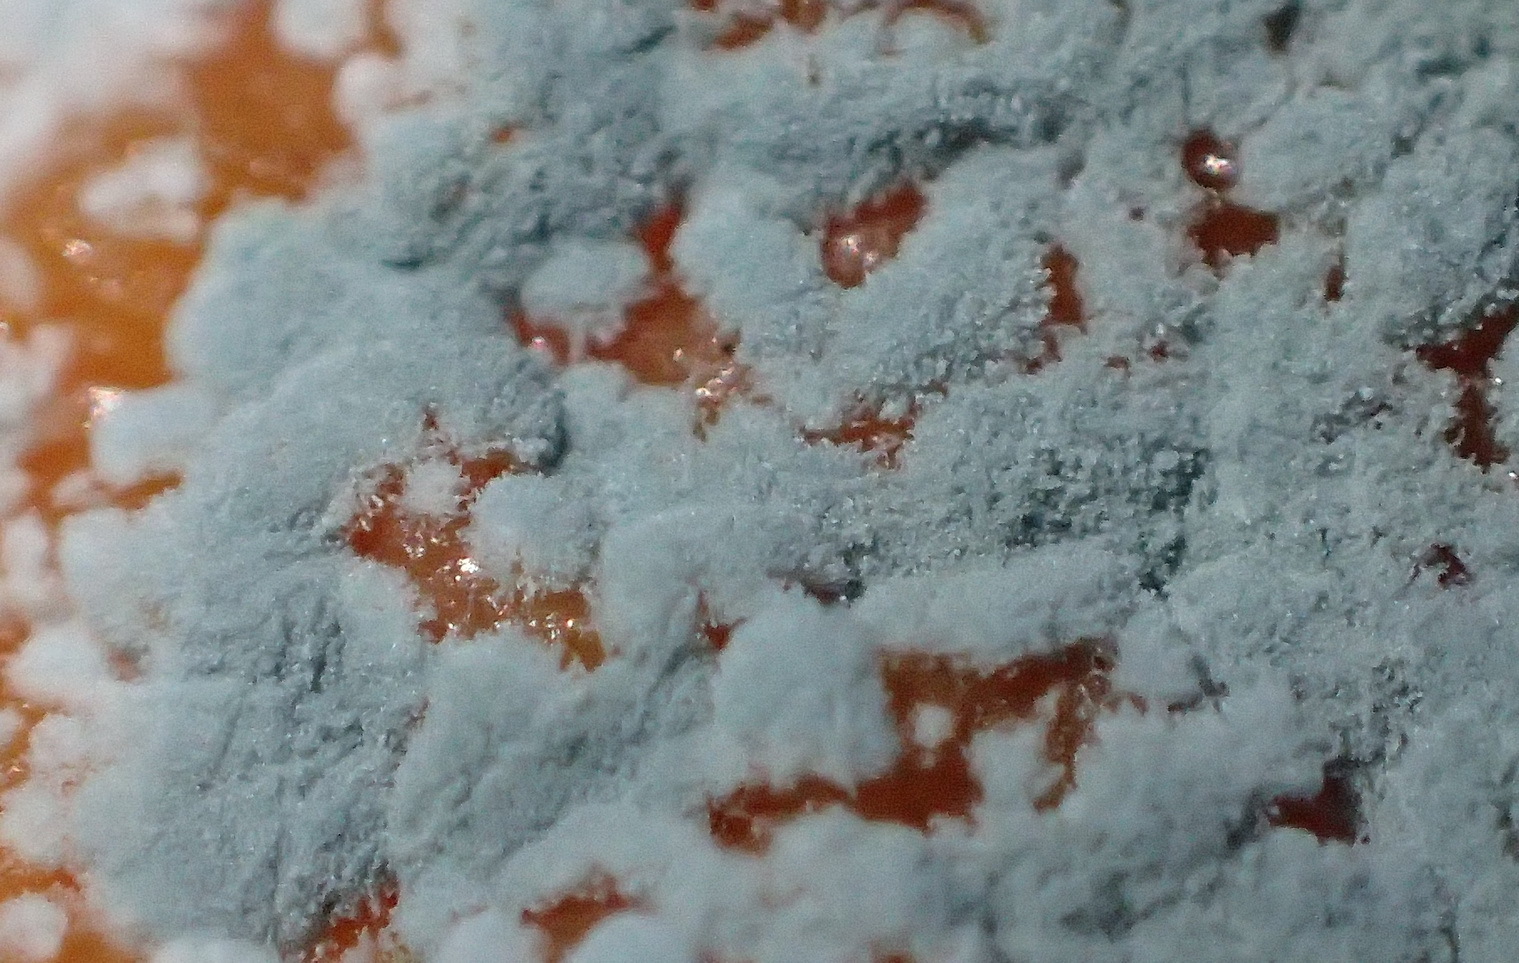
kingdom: Fungi
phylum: Ascomycota
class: Eurotiomycetes
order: Eurotiales
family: Aspergillaceae
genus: Penicillium
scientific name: Penicillium digitatum
